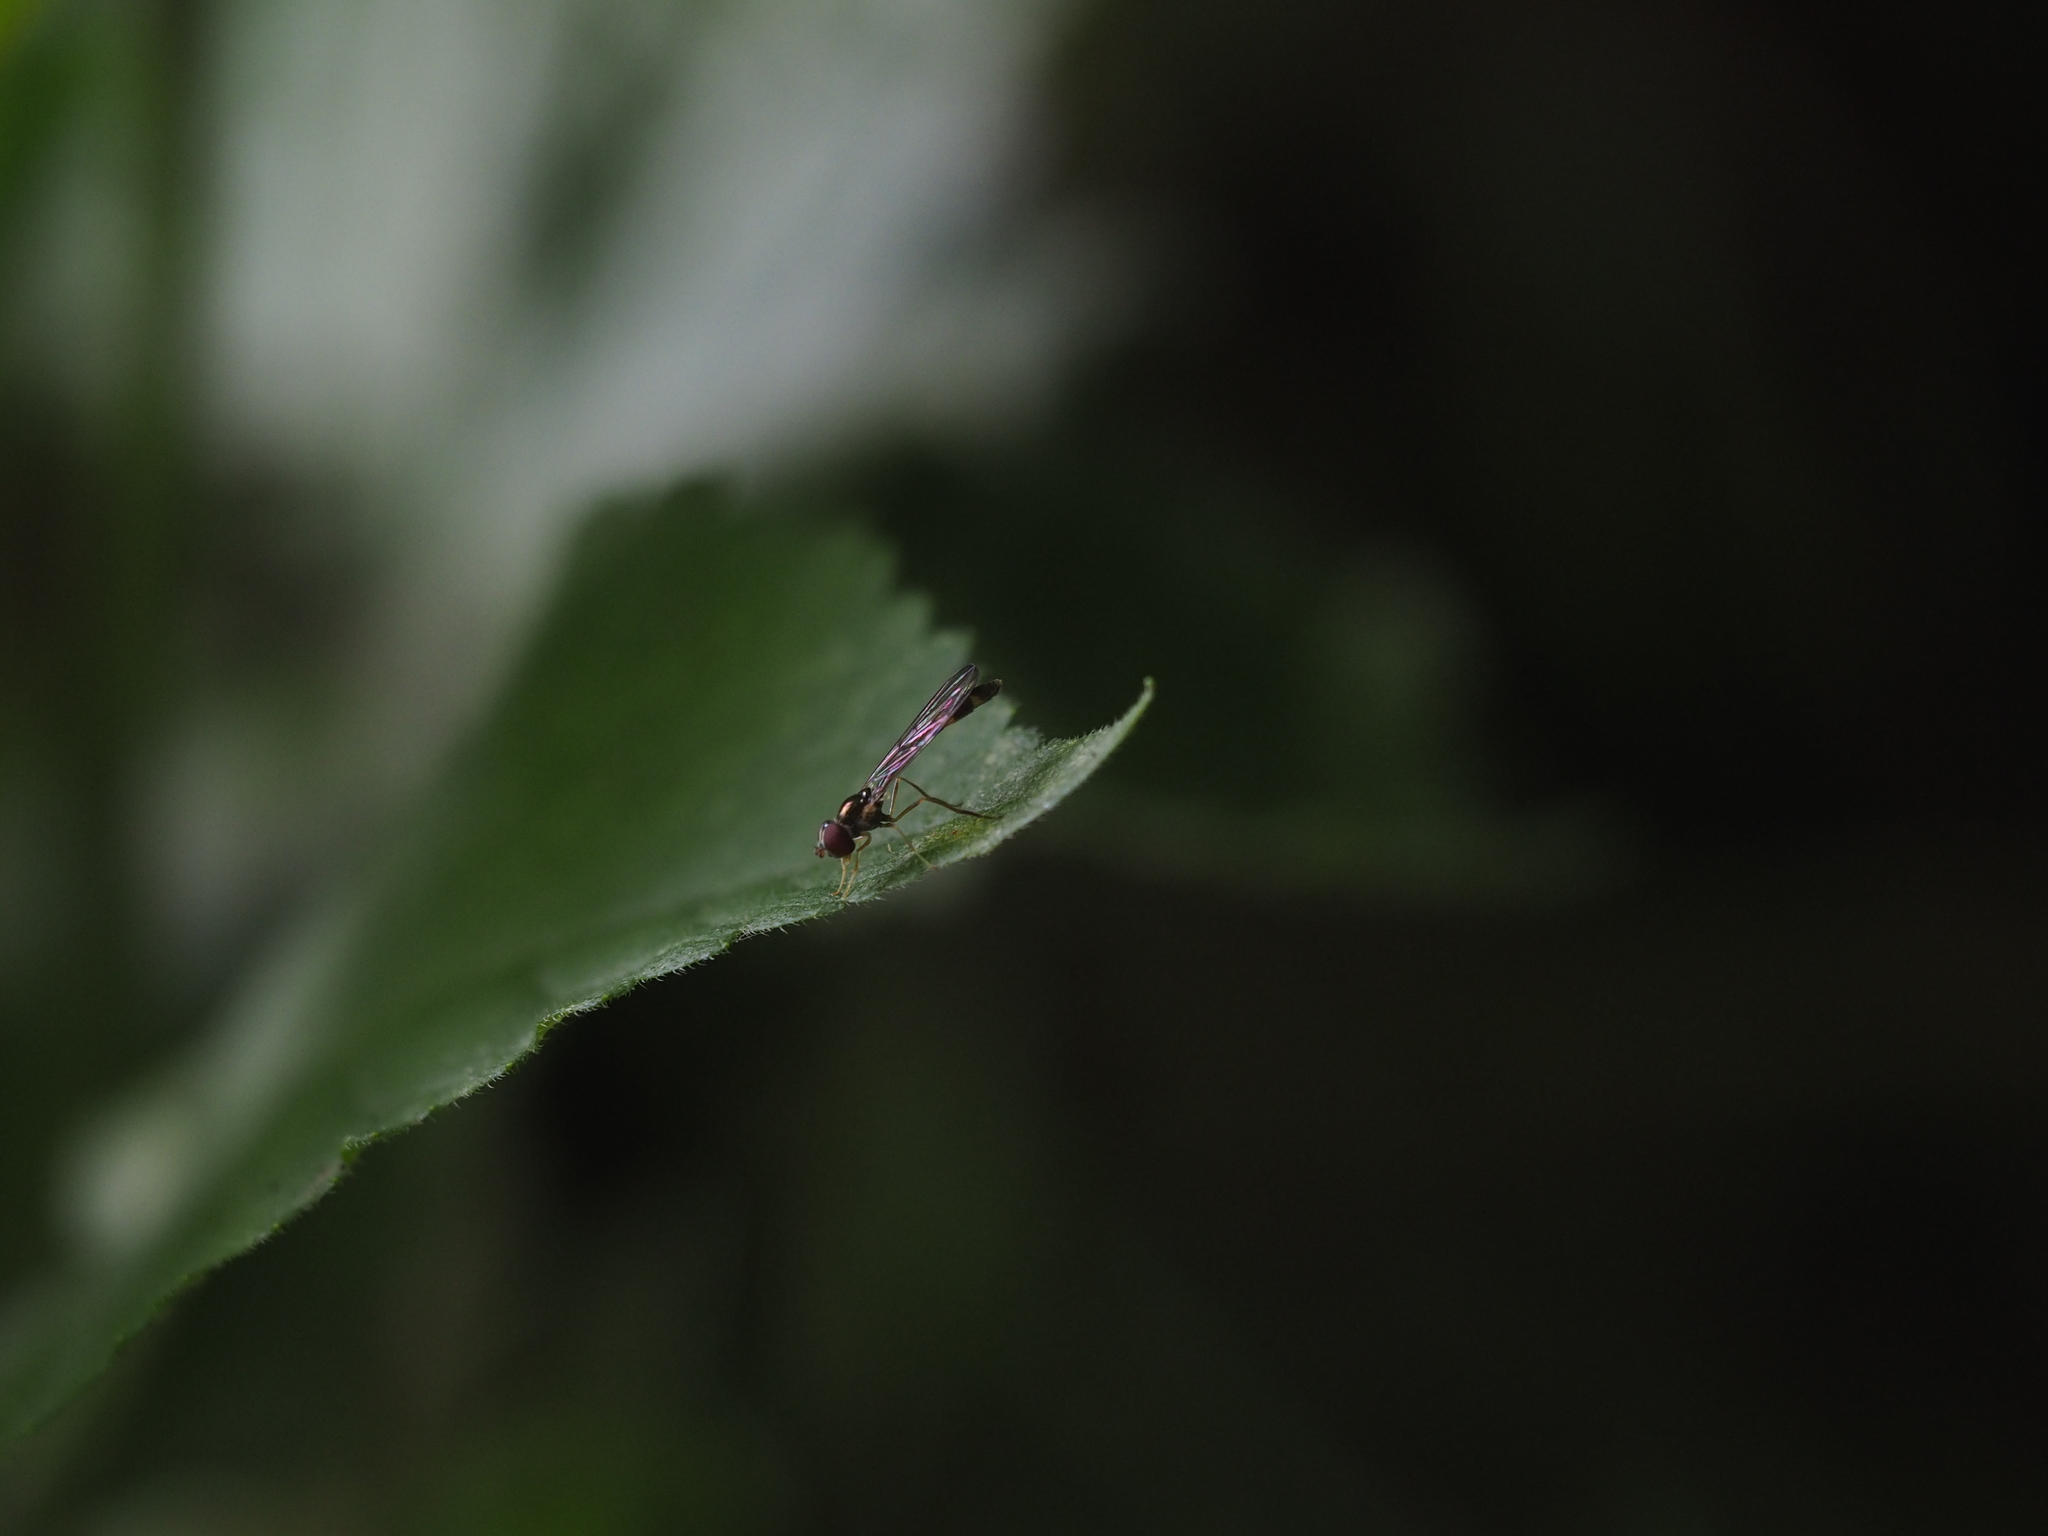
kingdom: Animalia
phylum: Arthropoda
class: Insecta
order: Diptera
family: Syrphidae
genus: Baccha
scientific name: Baccha elongata
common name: Common dainty
